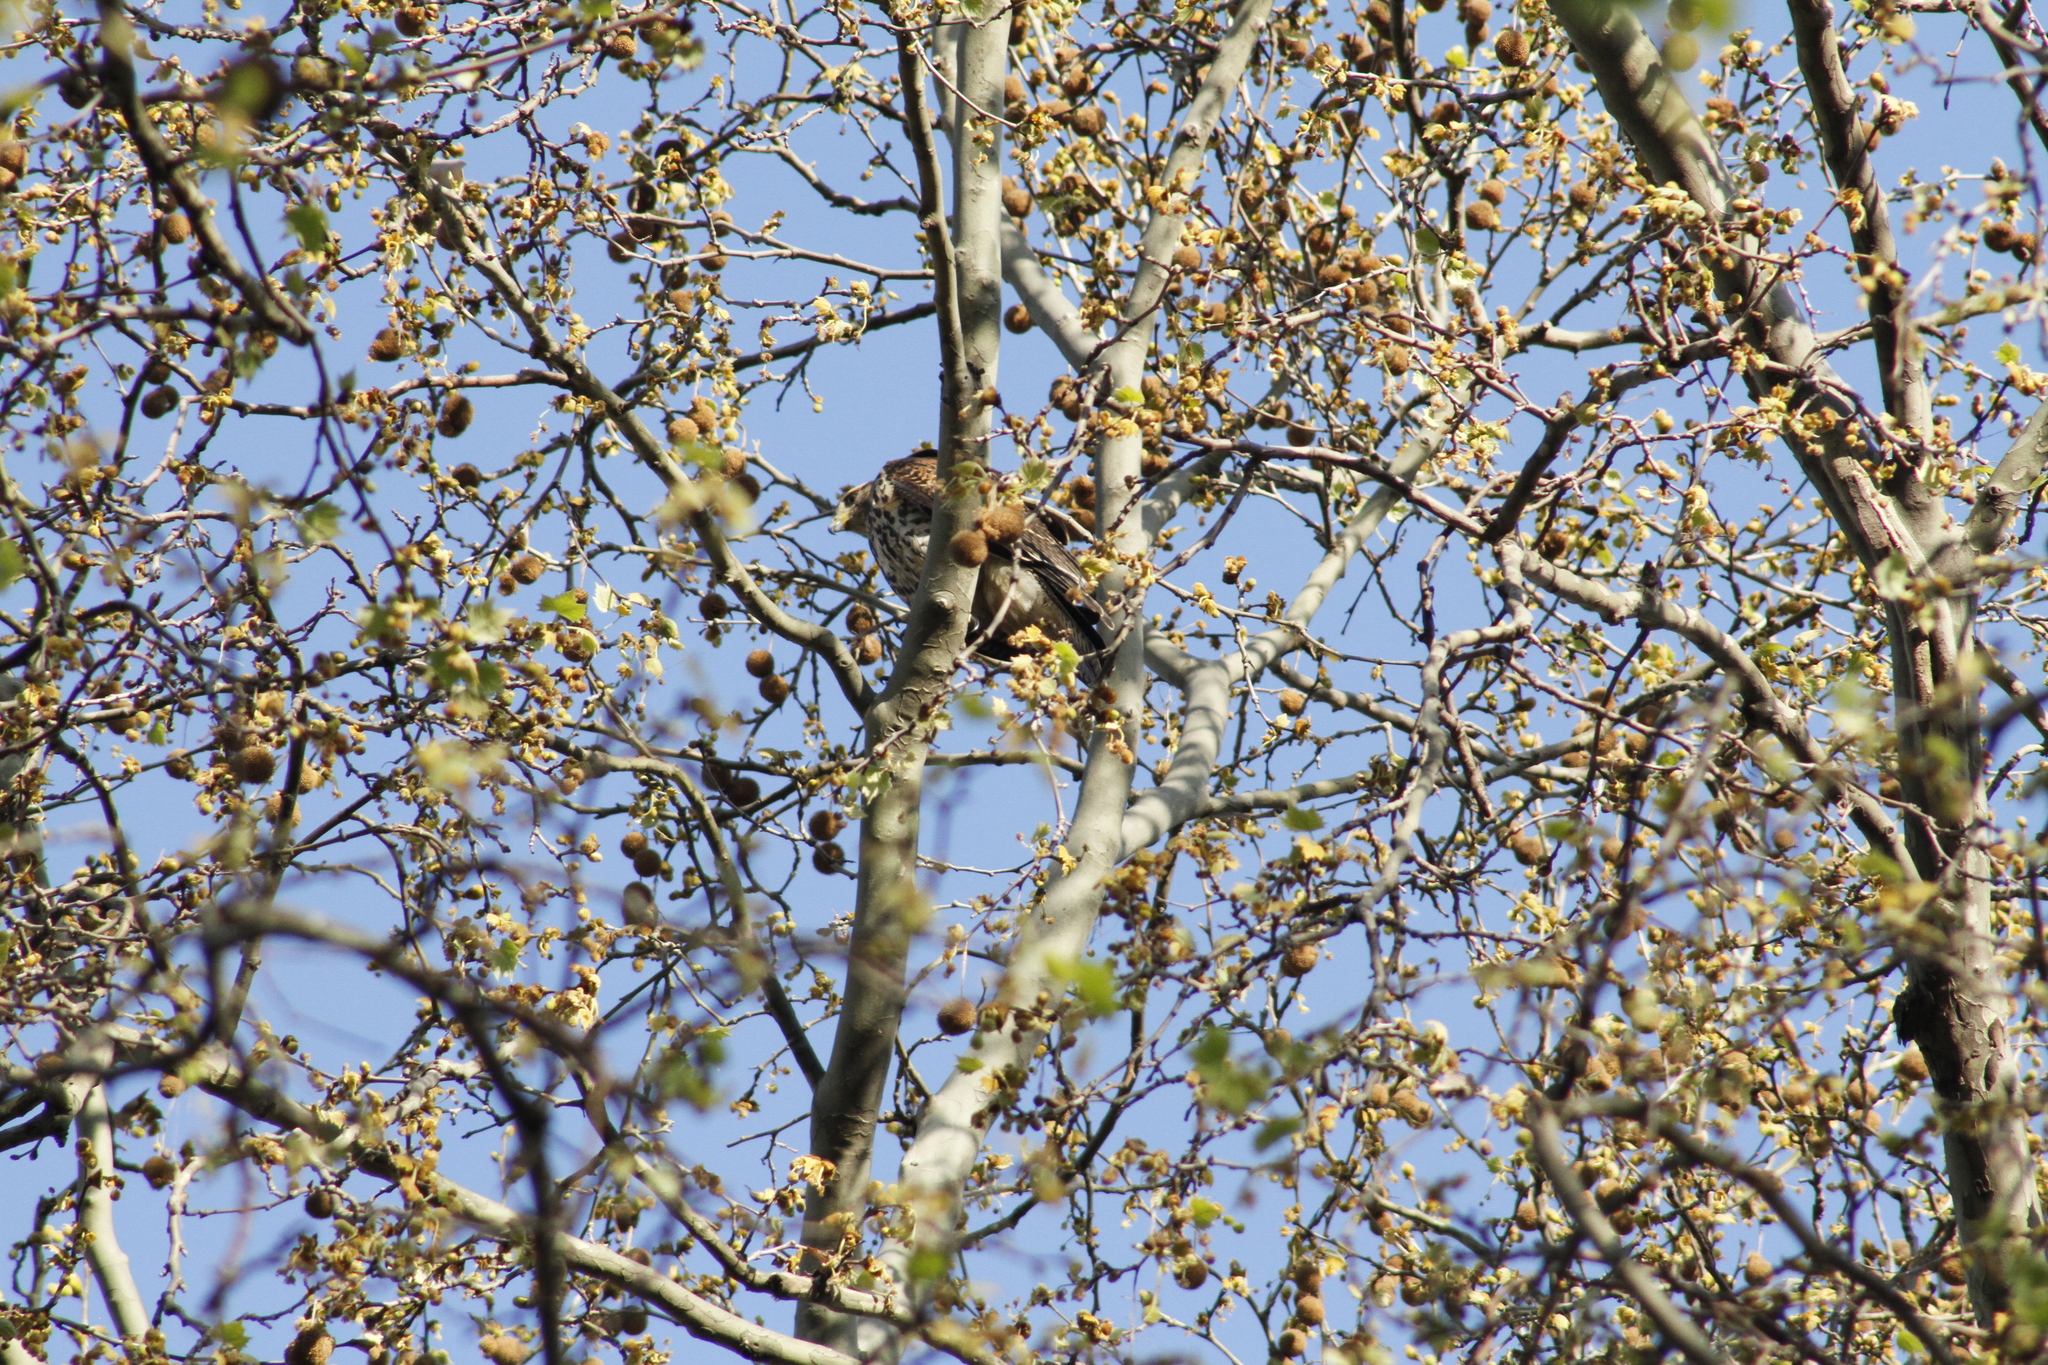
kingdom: Animalia
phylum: Chordata
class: Aves
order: Accipitriformes
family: Accipitridae
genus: Parabuteo
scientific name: Parabuteo unicinctus
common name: Harris's hawk
